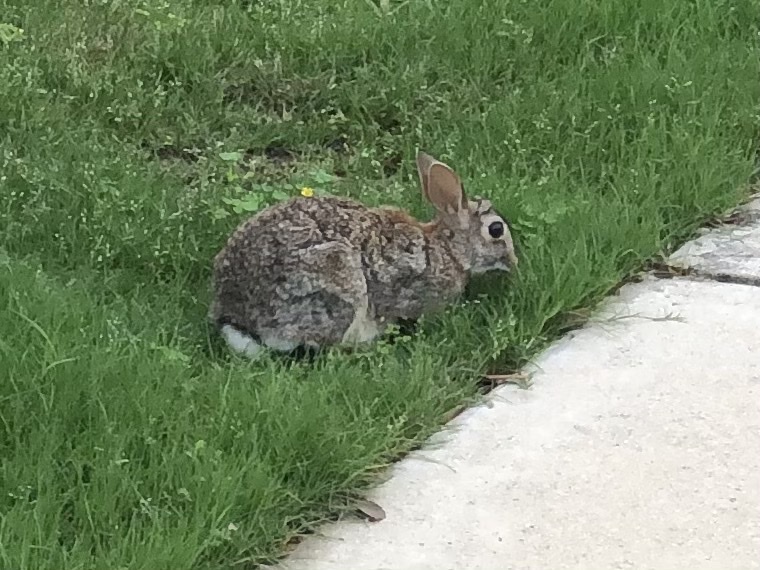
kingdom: Animalia
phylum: Chordata
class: Mammalia
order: Lagomorpha
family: Leporidae
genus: Sylvilagus
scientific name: Sylvilagus floridanus
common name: Eastern cottontail
